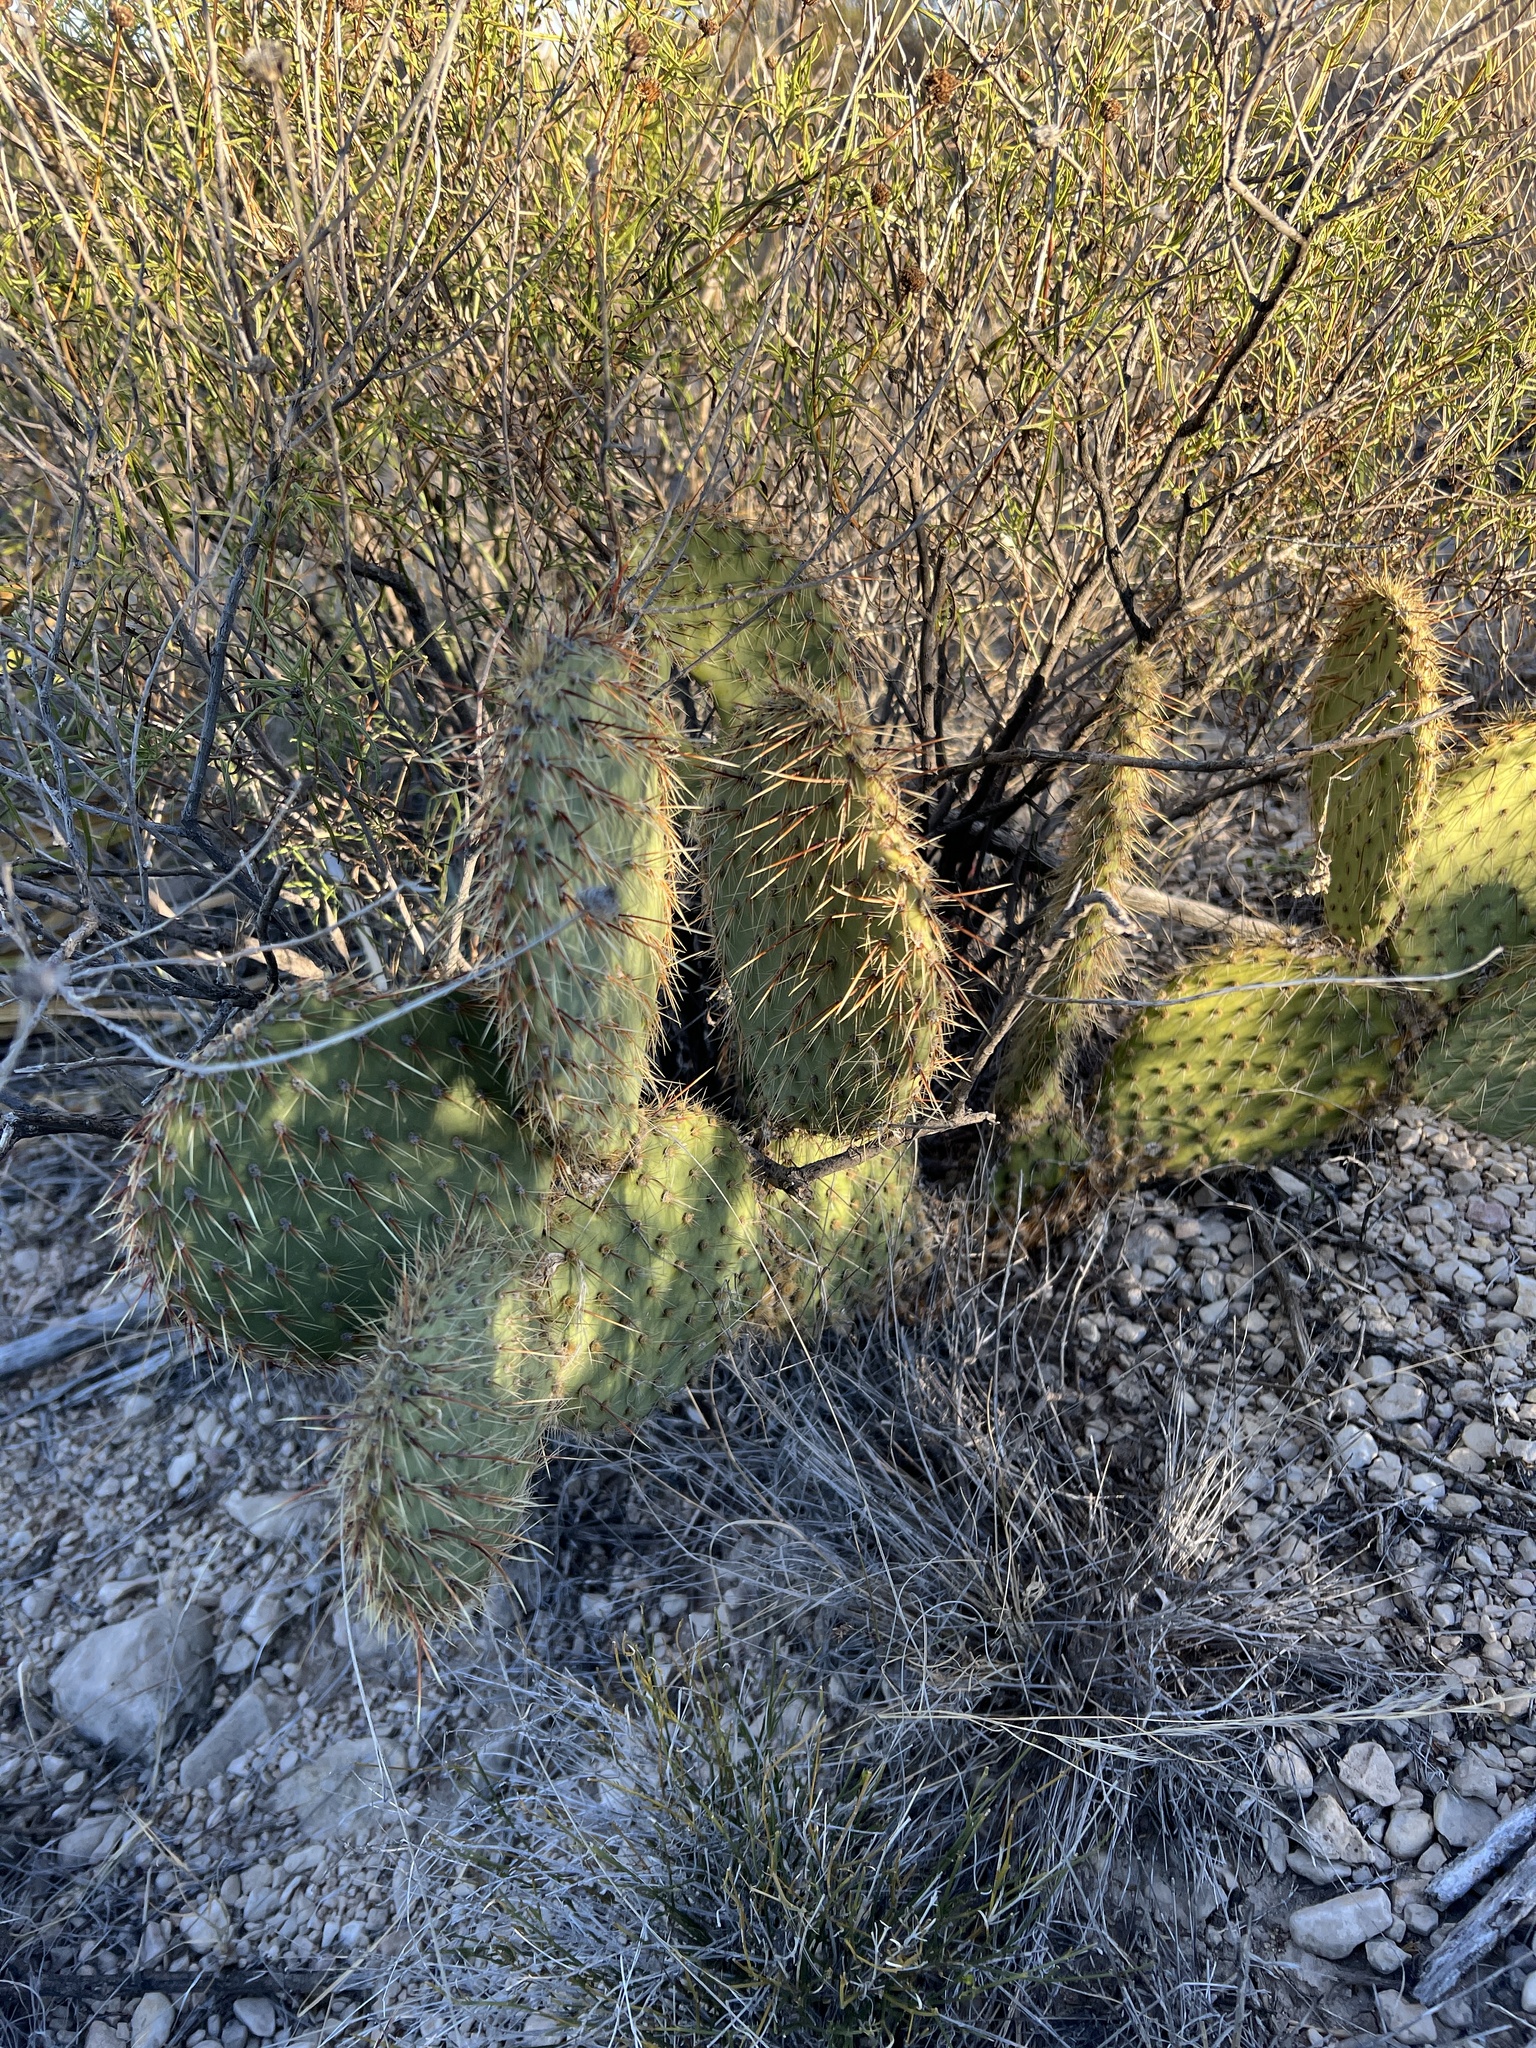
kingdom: Plantae
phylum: Tracheophyta
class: Magnoliopsida
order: Caryophyllales
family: Cactaceae
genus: Opuntia
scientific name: Opuntia strigil
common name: Marble-fruit prickly-pear
